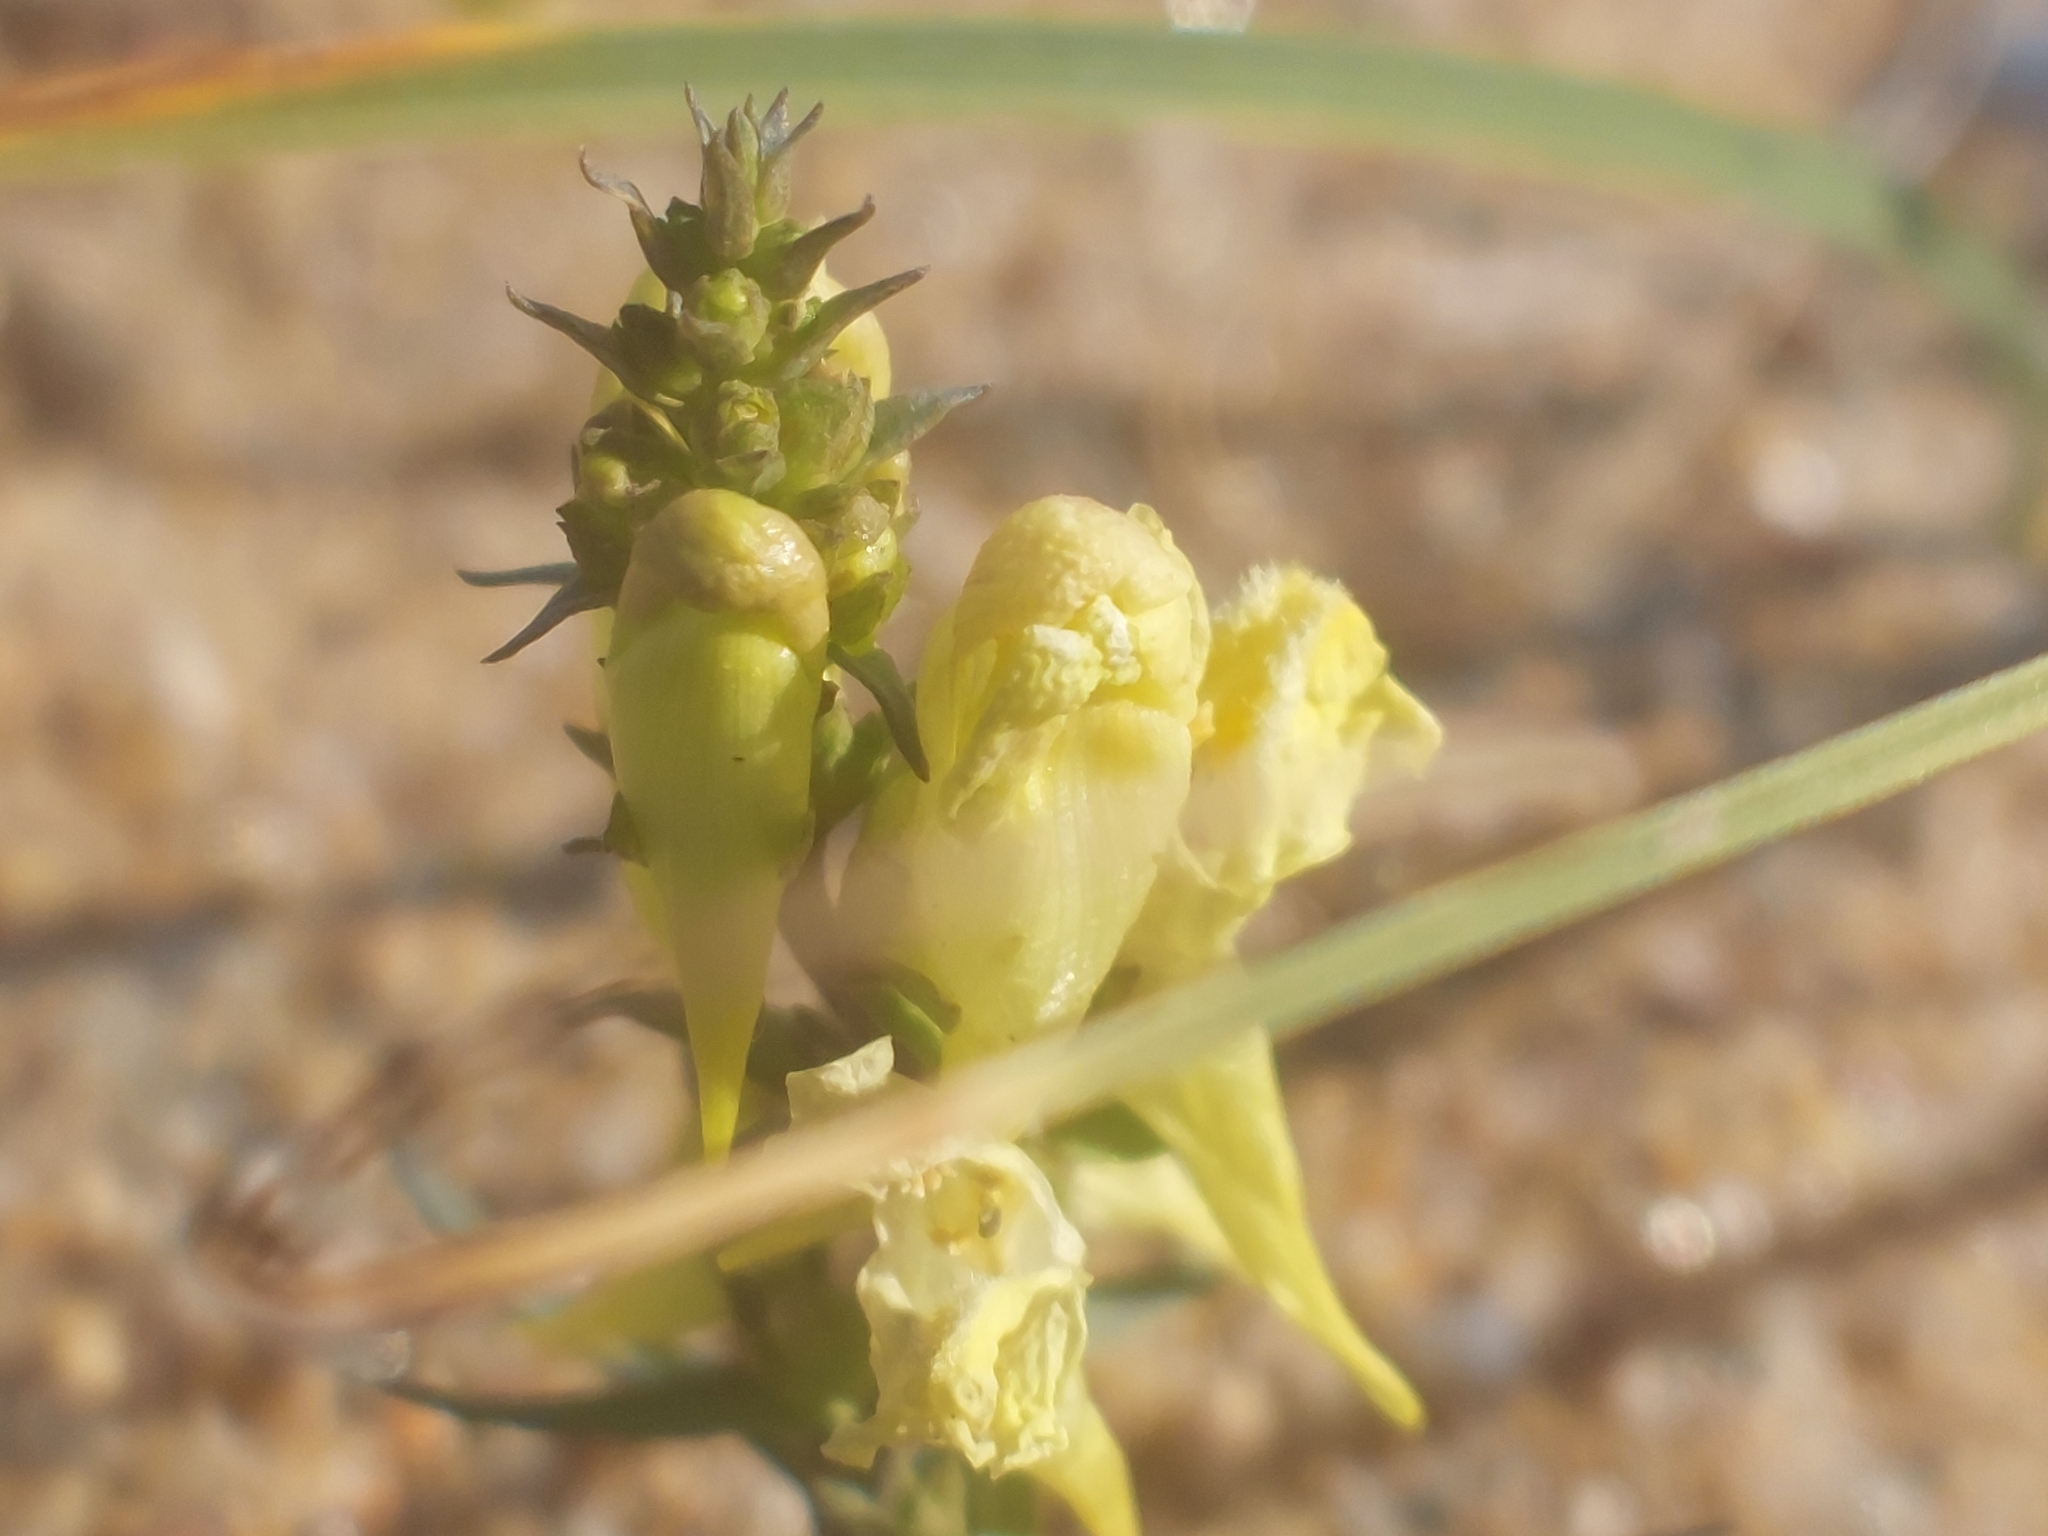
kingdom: Plantae
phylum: Tracheophyta
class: Magnoliopsida
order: Lamiales
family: Plantaginaceae
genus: Linaria
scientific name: Linaria vulgaris
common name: Butter and eggs
